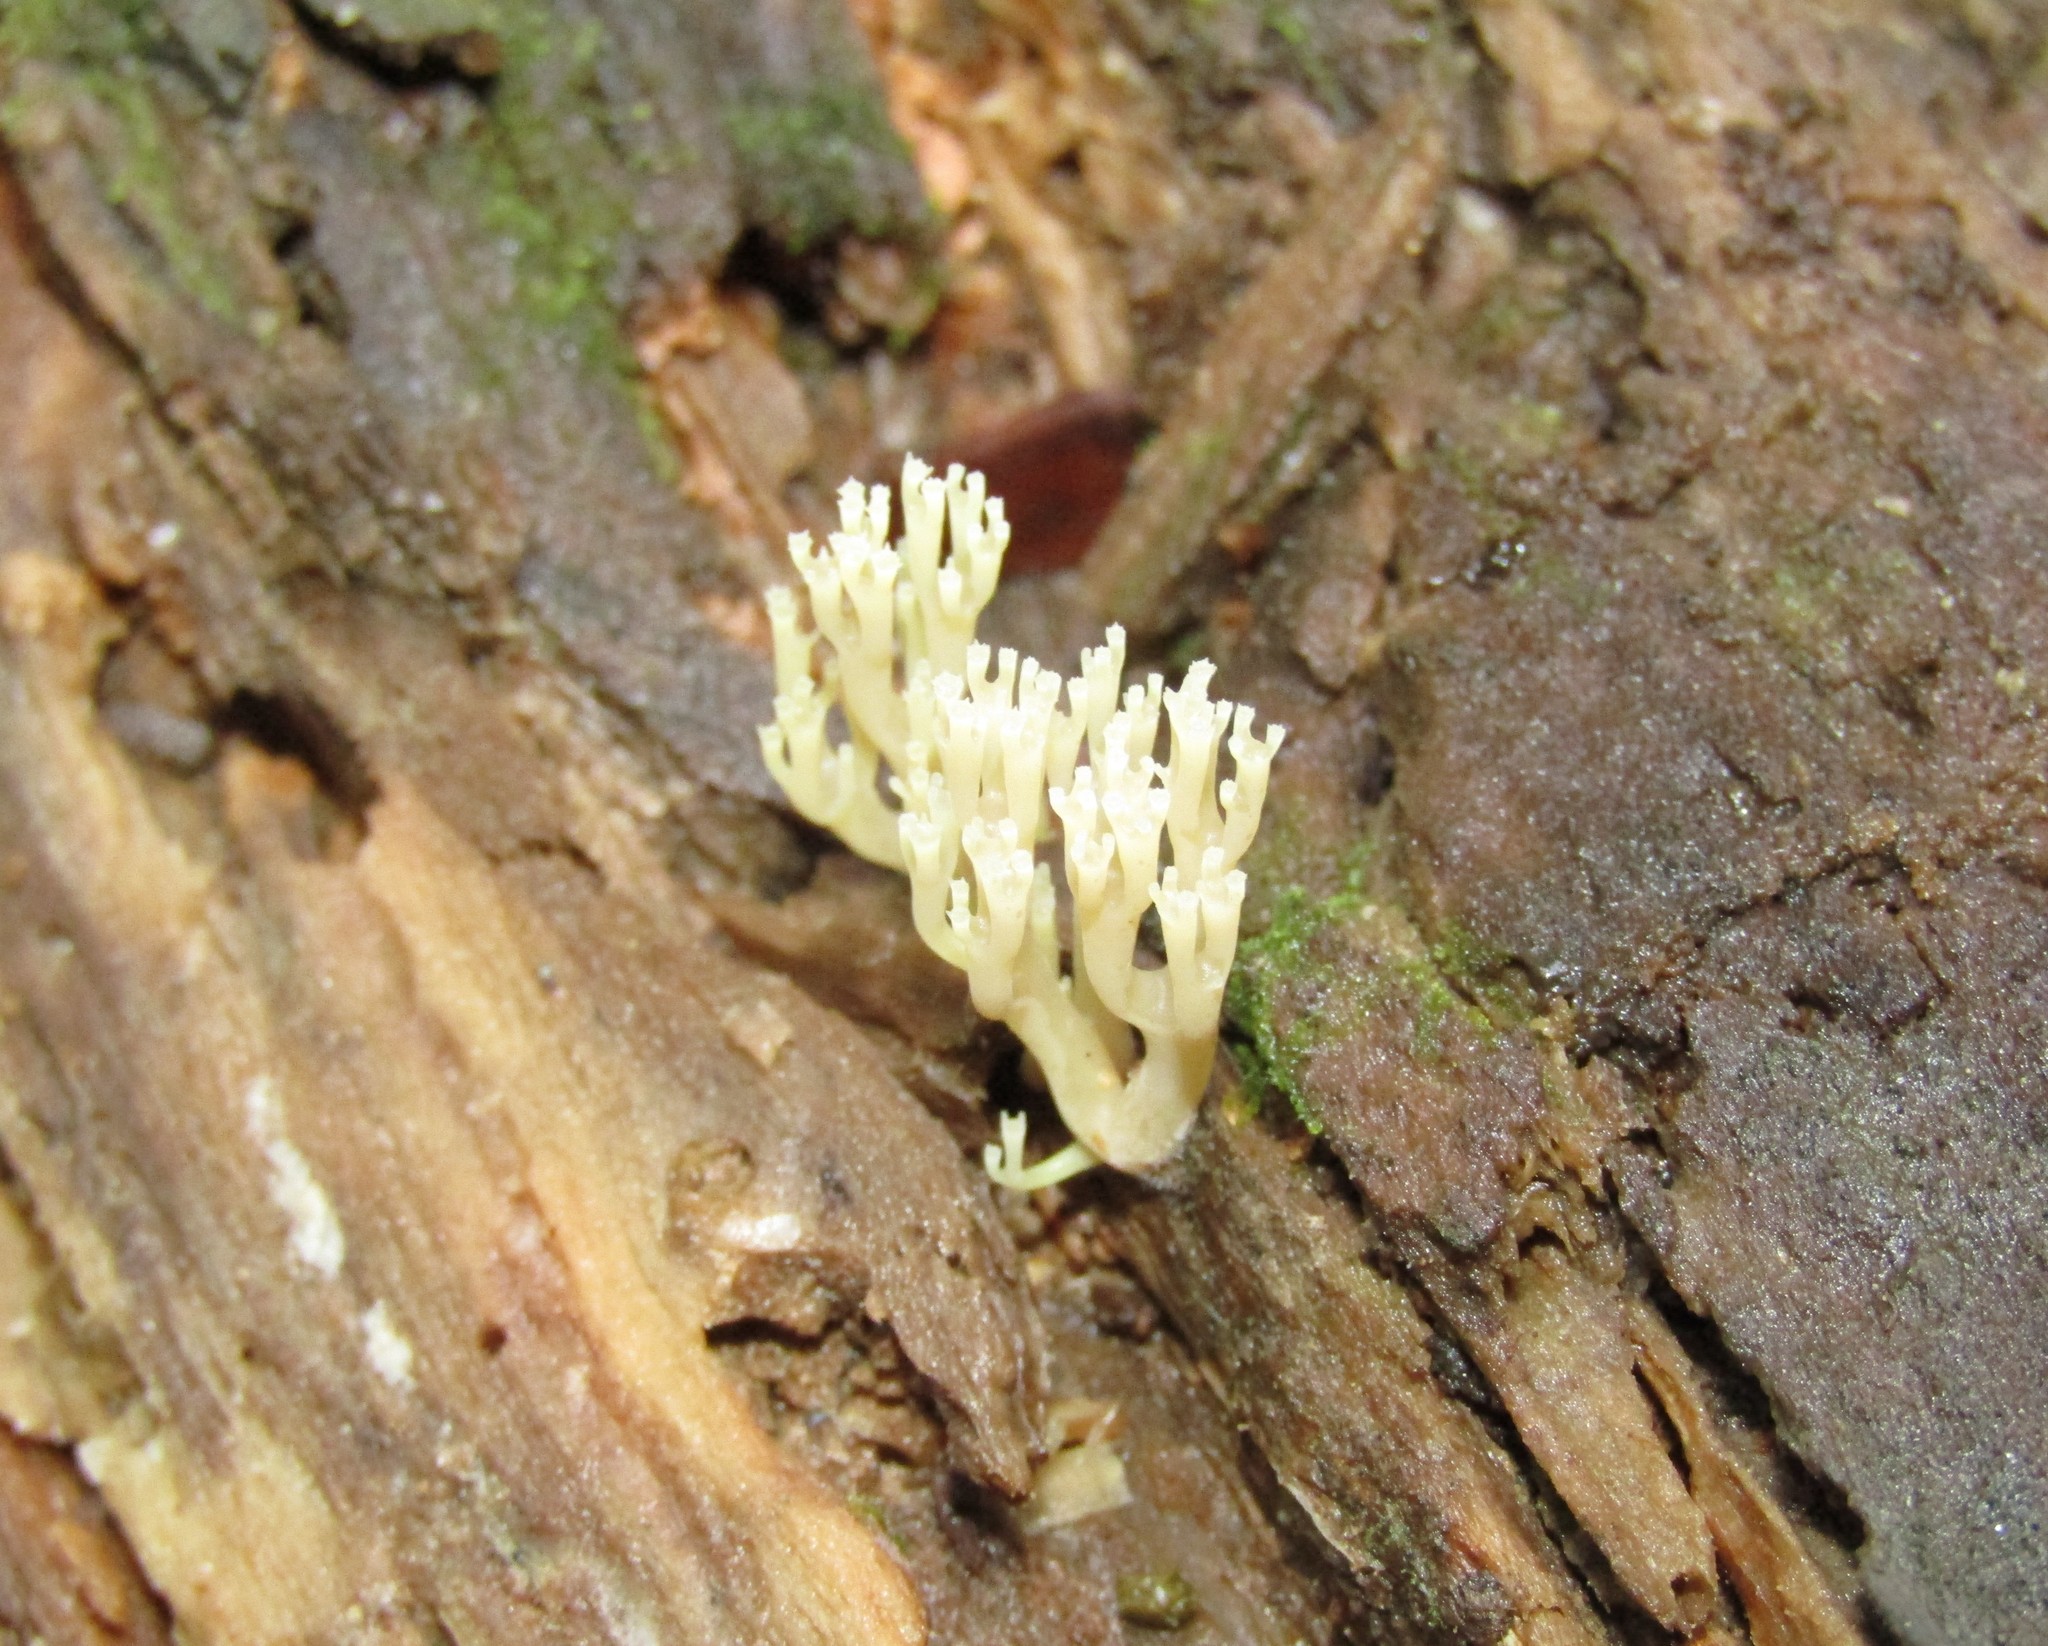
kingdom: Fungi
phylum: Basidiomycota
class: Agaricomycetes
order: Russulales
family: Auriscalpiaceae
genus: Artomyces
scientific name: Artomyces pyxidatus
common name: Crown-tipped coral fungus
